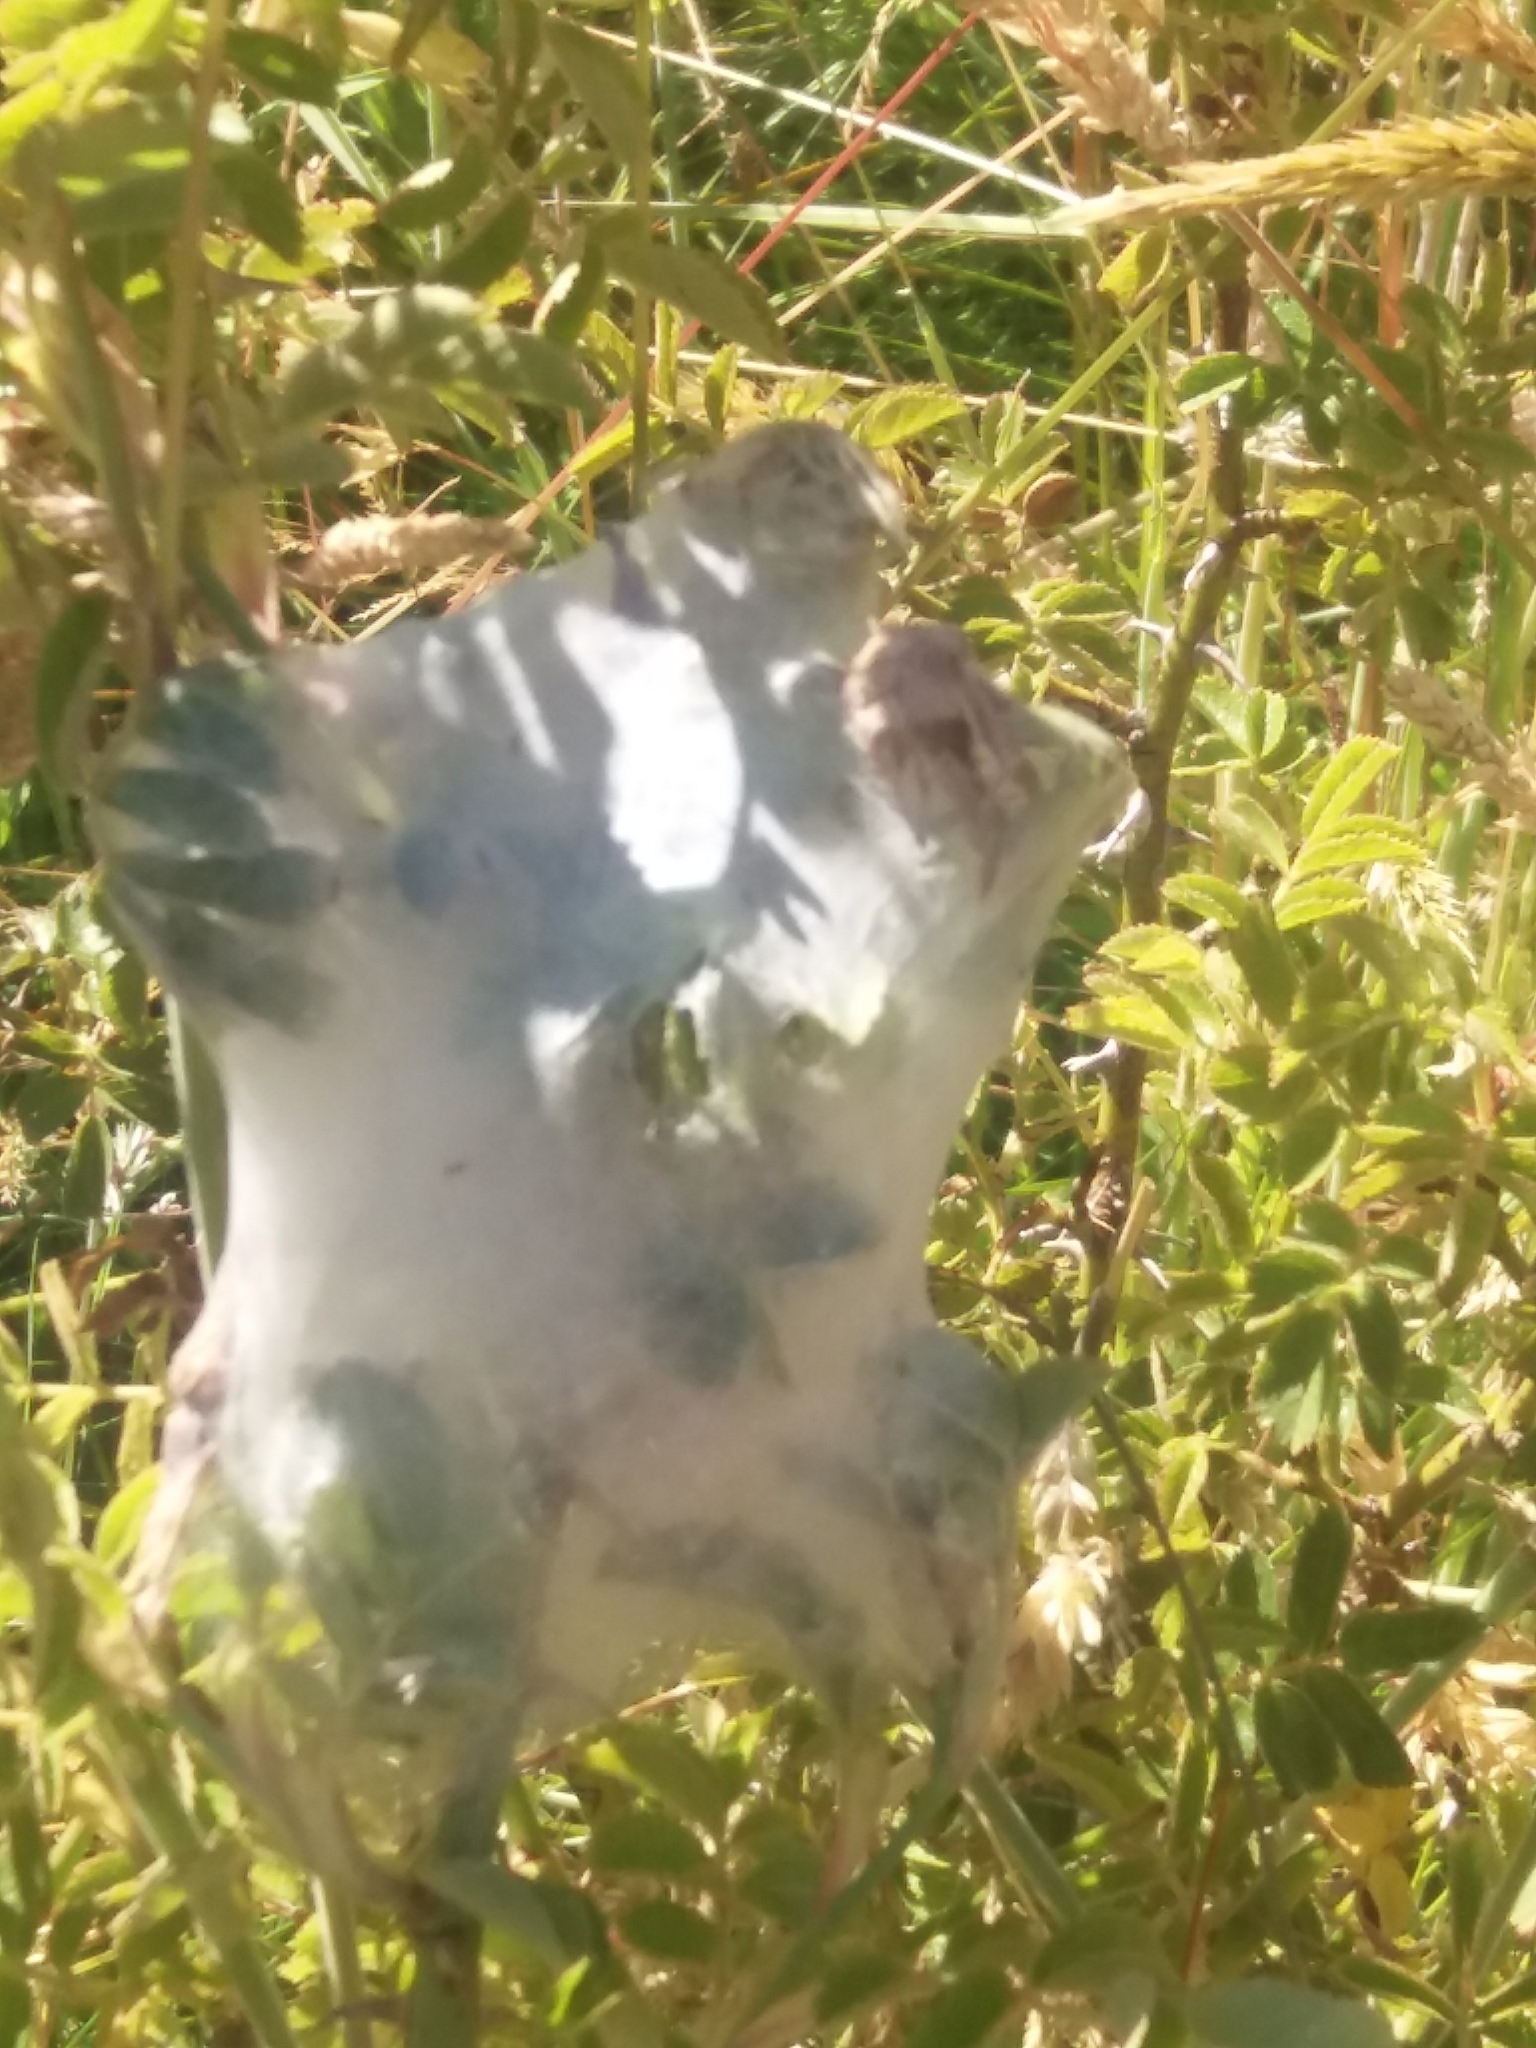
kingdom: Animalia
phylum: Arthropoda
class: Arachnida
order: Araneae
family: Pisauridae
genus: Dolomedes
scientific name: Dolomedes minor
